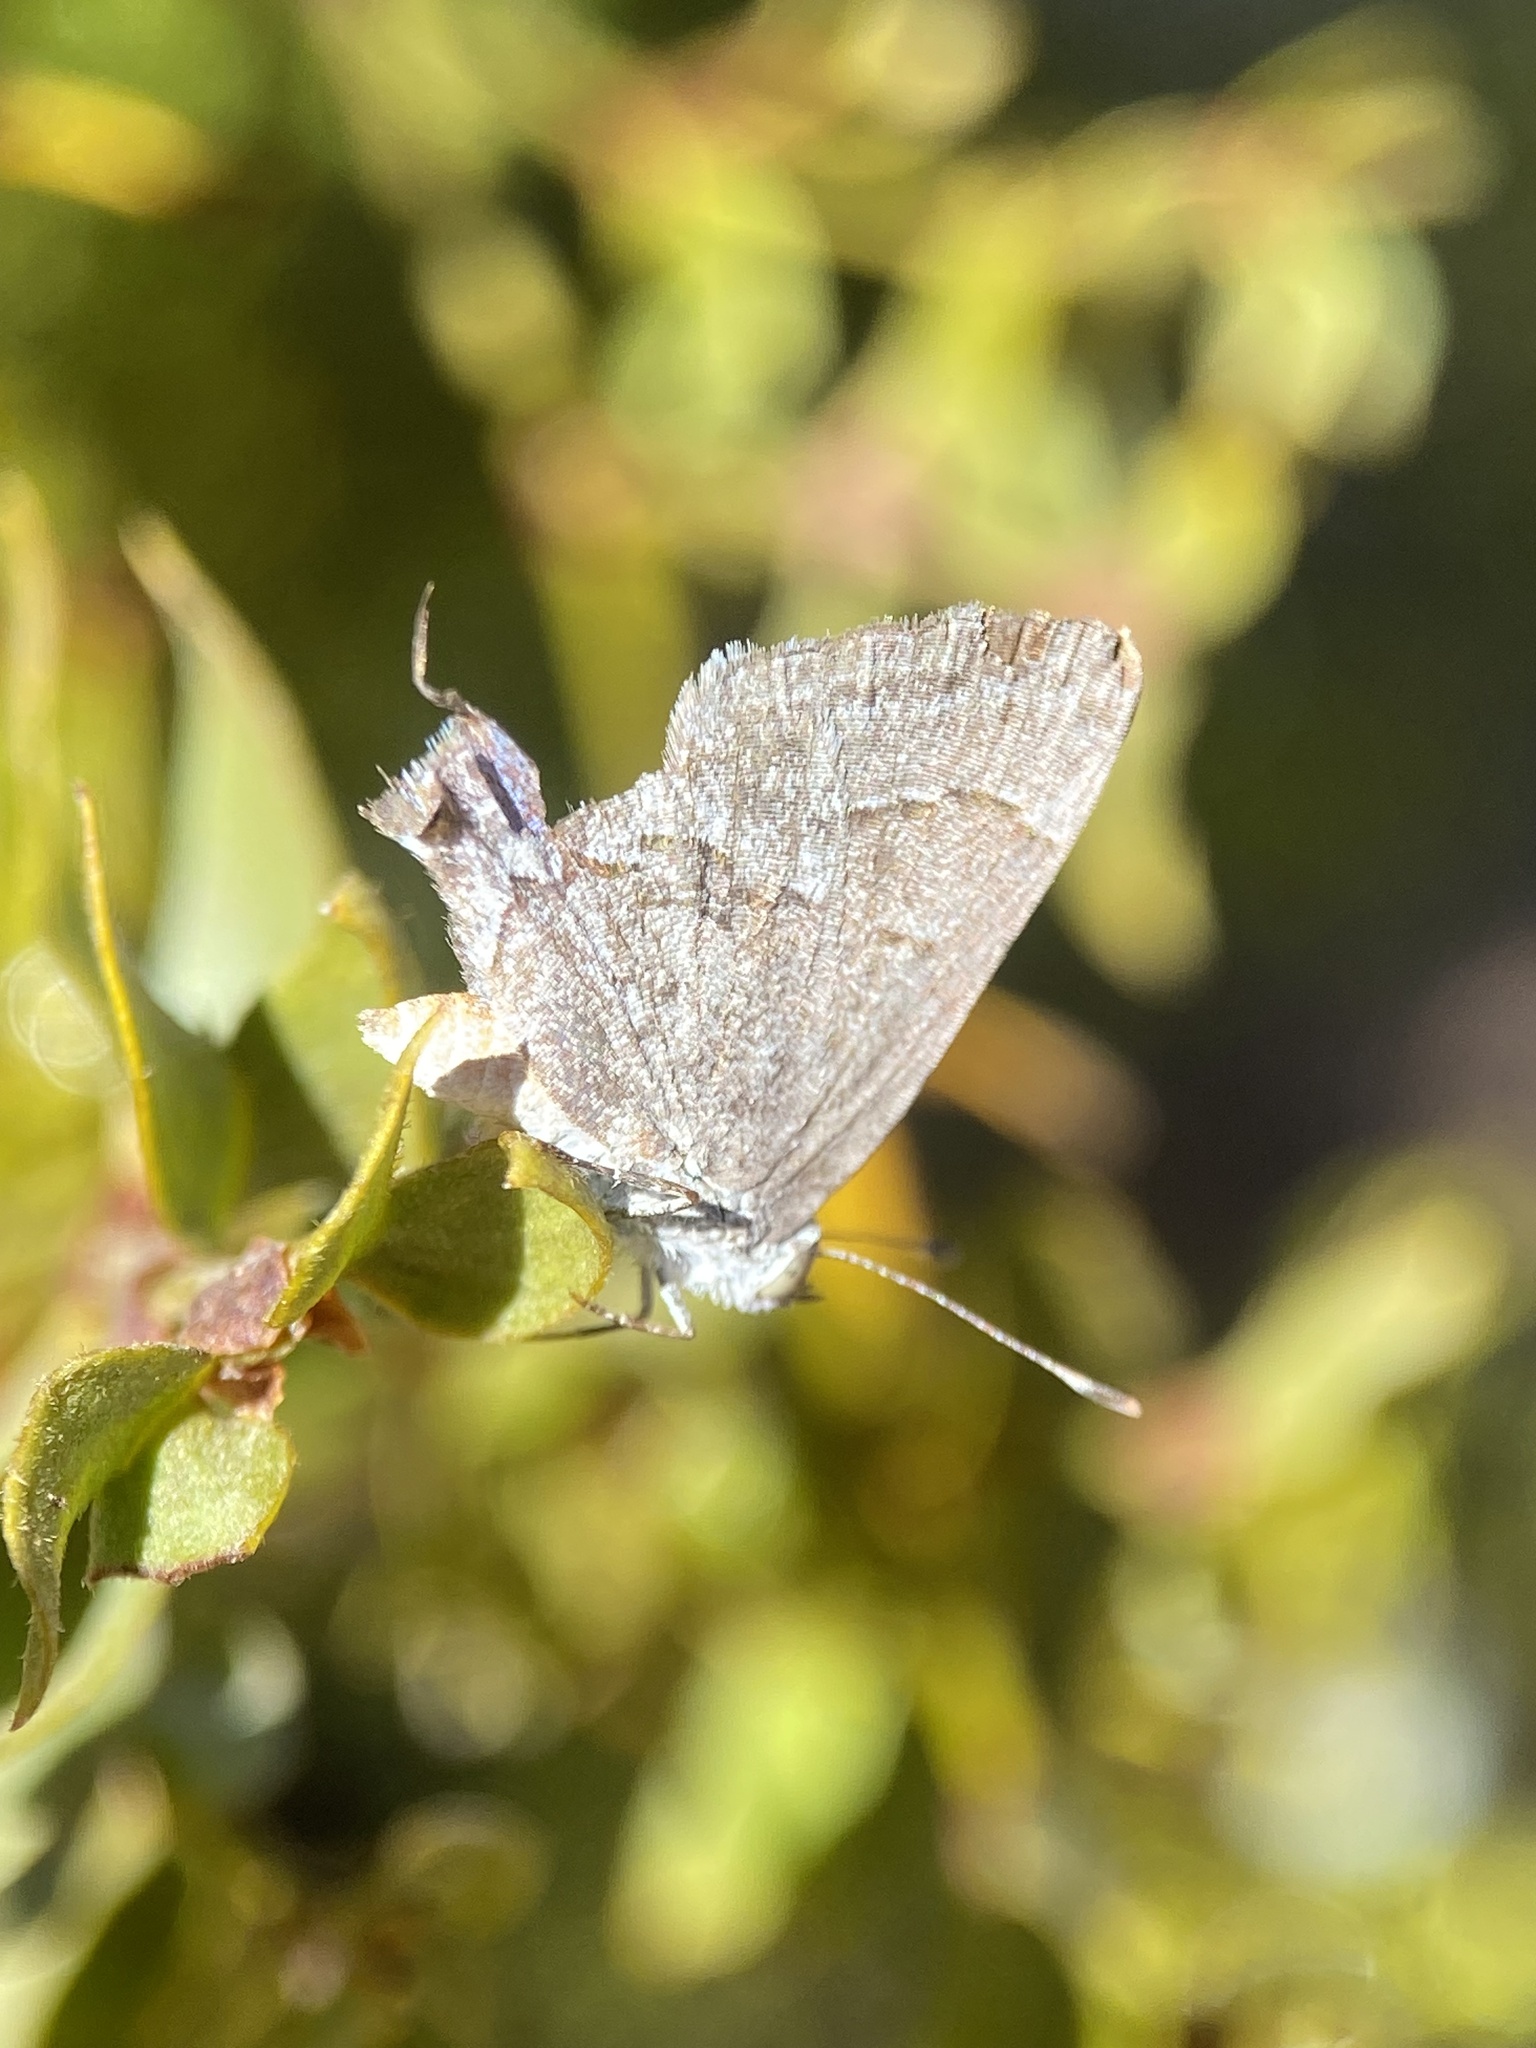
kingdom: Animalia
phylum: Arthropoda
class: Insecta
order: Lepidoptera
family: Lycaenidae
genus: Ministrymon
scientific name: Ministrymon leda
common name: Leda ministreak
